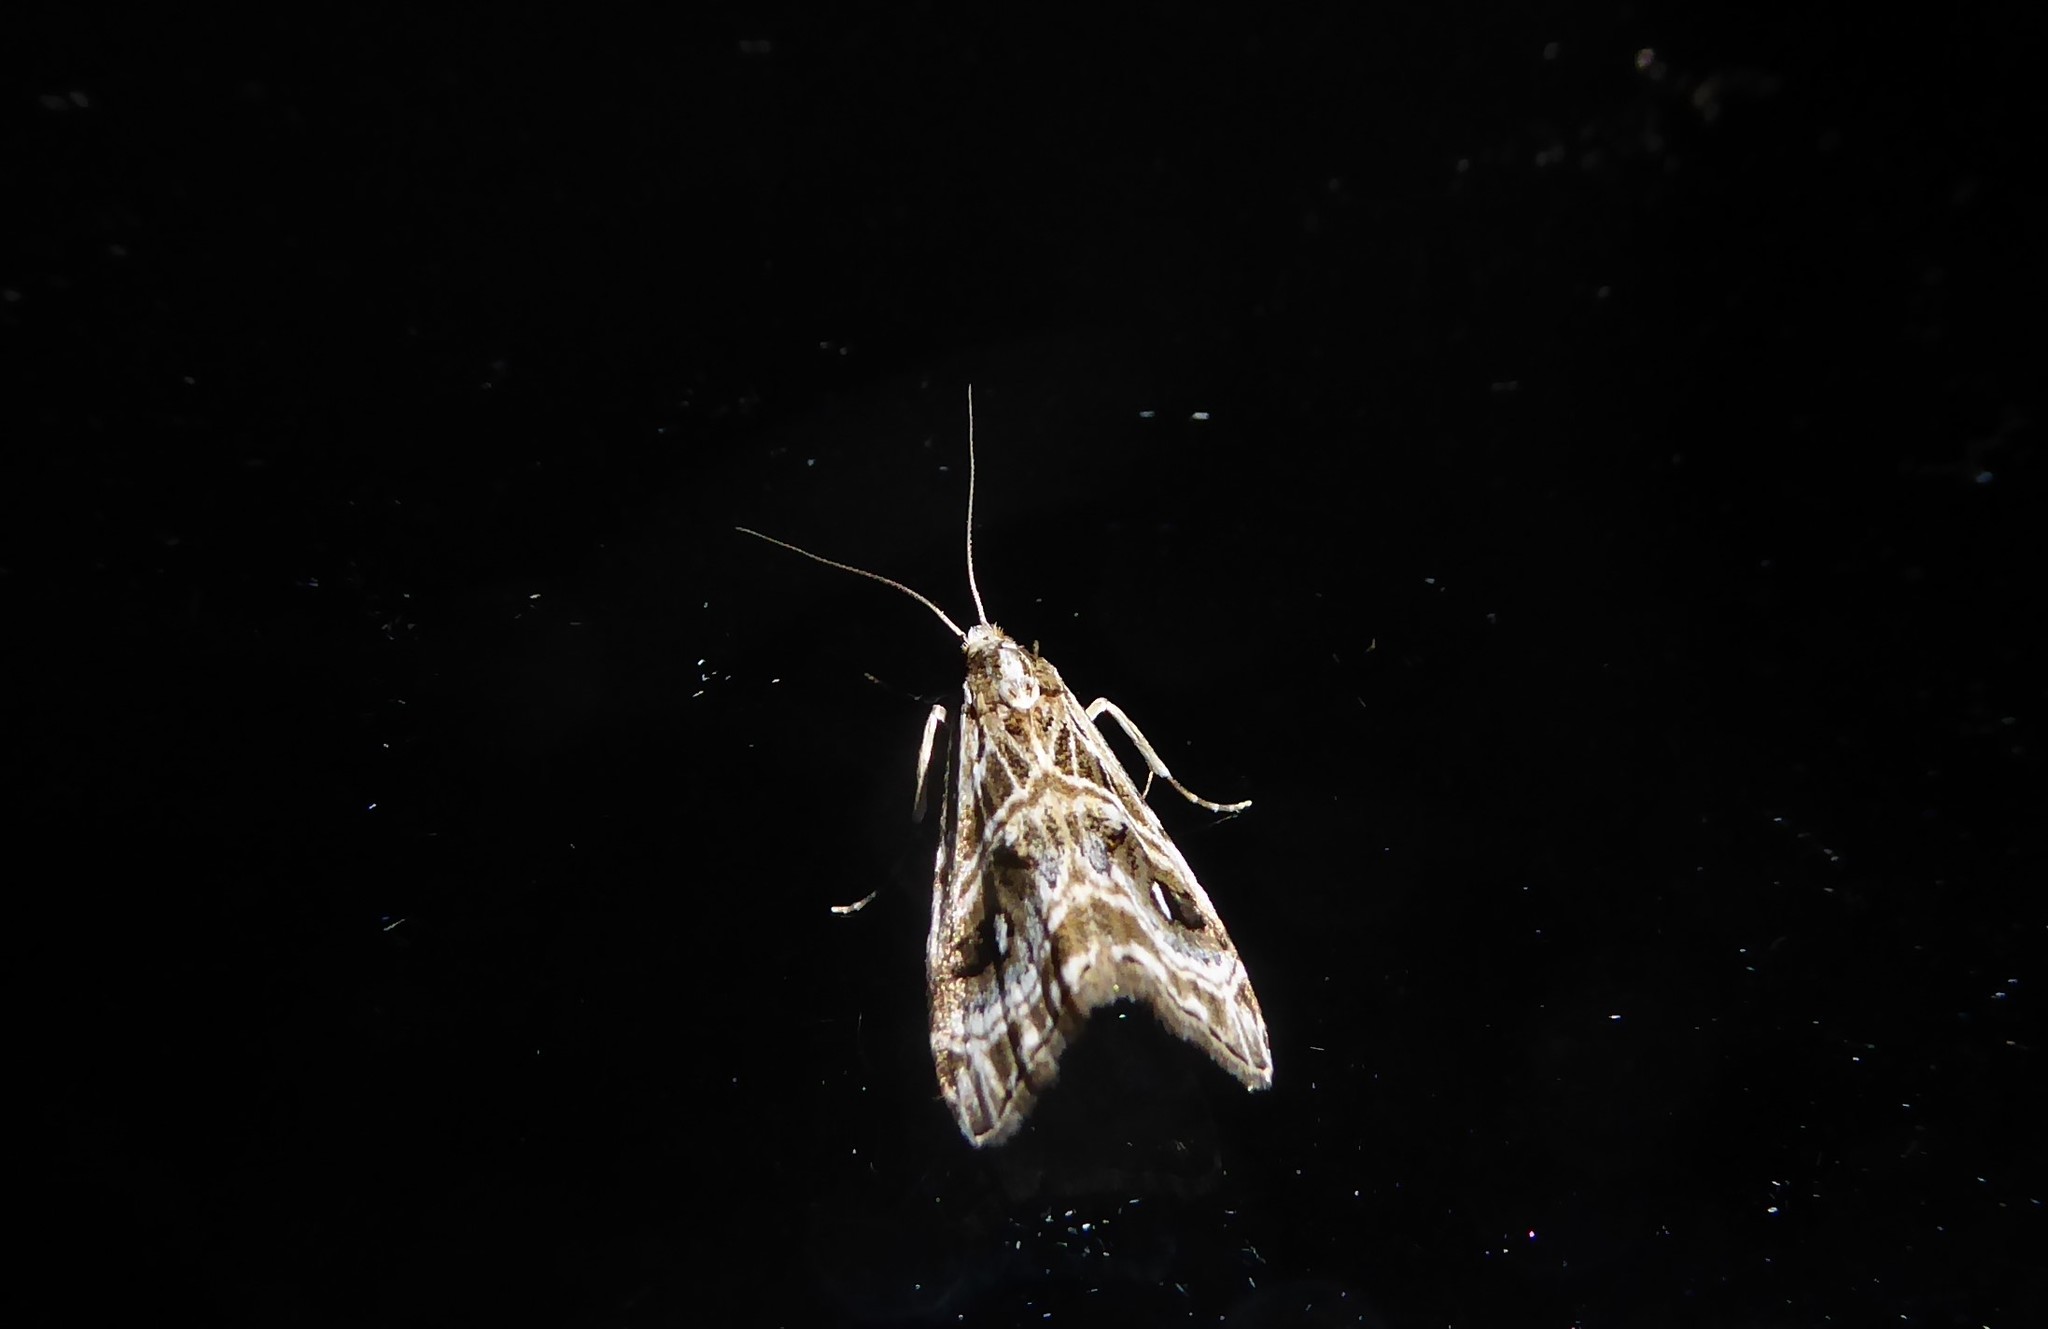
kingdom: Animalia
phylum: Arthropoda
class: Insecta
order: Lepidoptera
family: Crambidae
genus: Gadira
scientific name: Gadira acerella
